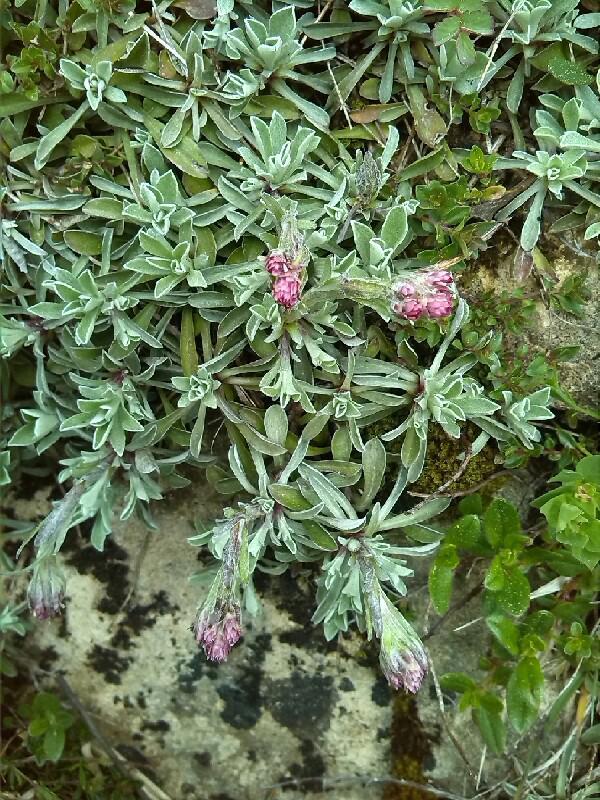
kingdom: Plantae
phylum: Tracheophyta
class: Magnoliopsida
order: Asterales
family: Asteraceae
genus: Antennaria
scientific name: Antennaria dioica
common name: Mountain everlasting
